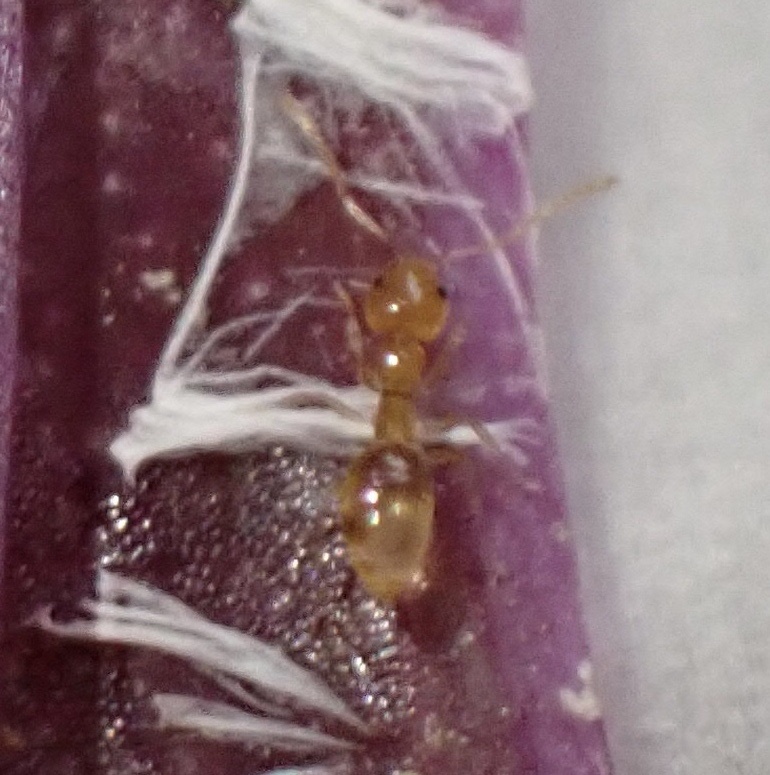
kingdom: Animalia
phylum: Arthropoda
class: Insecta
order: Hymenoptera
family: Formicidae
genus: Plagiolepis
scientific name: Plagiolepis alluaudi
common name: Little yellow ant
